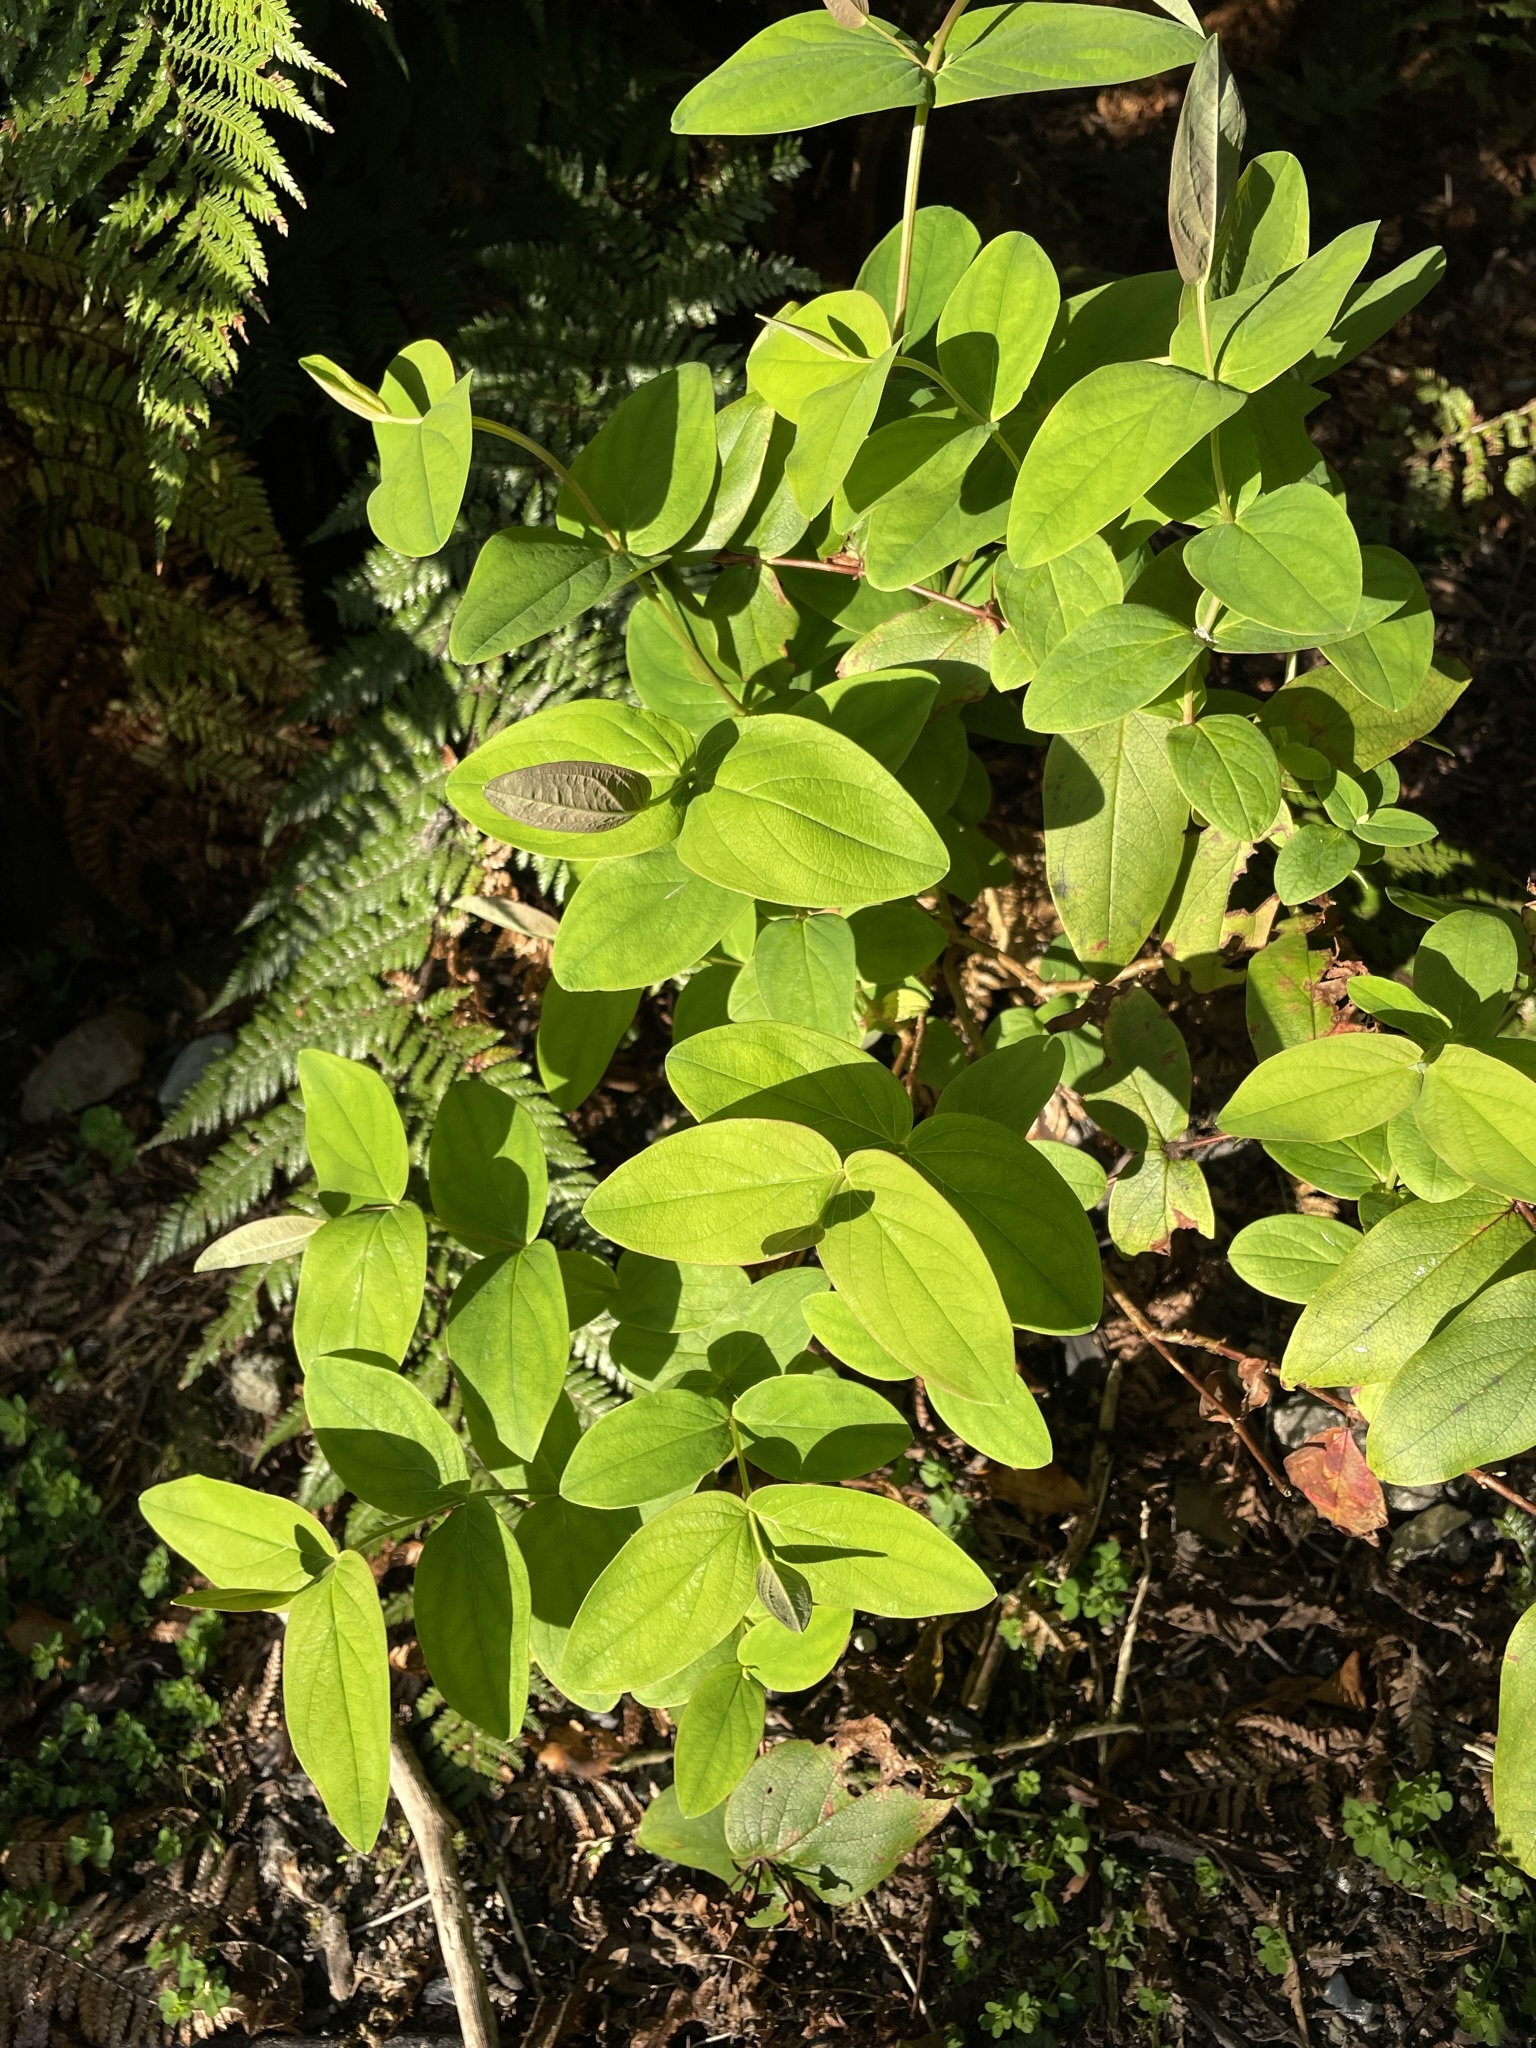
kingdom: Plantae
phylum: Tracheophyta
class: Magnoliopsida
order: Malpighiales
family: Hypericaceae
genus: Hypericum
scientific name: Hypericum androsaemum
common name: Sweet-amber
